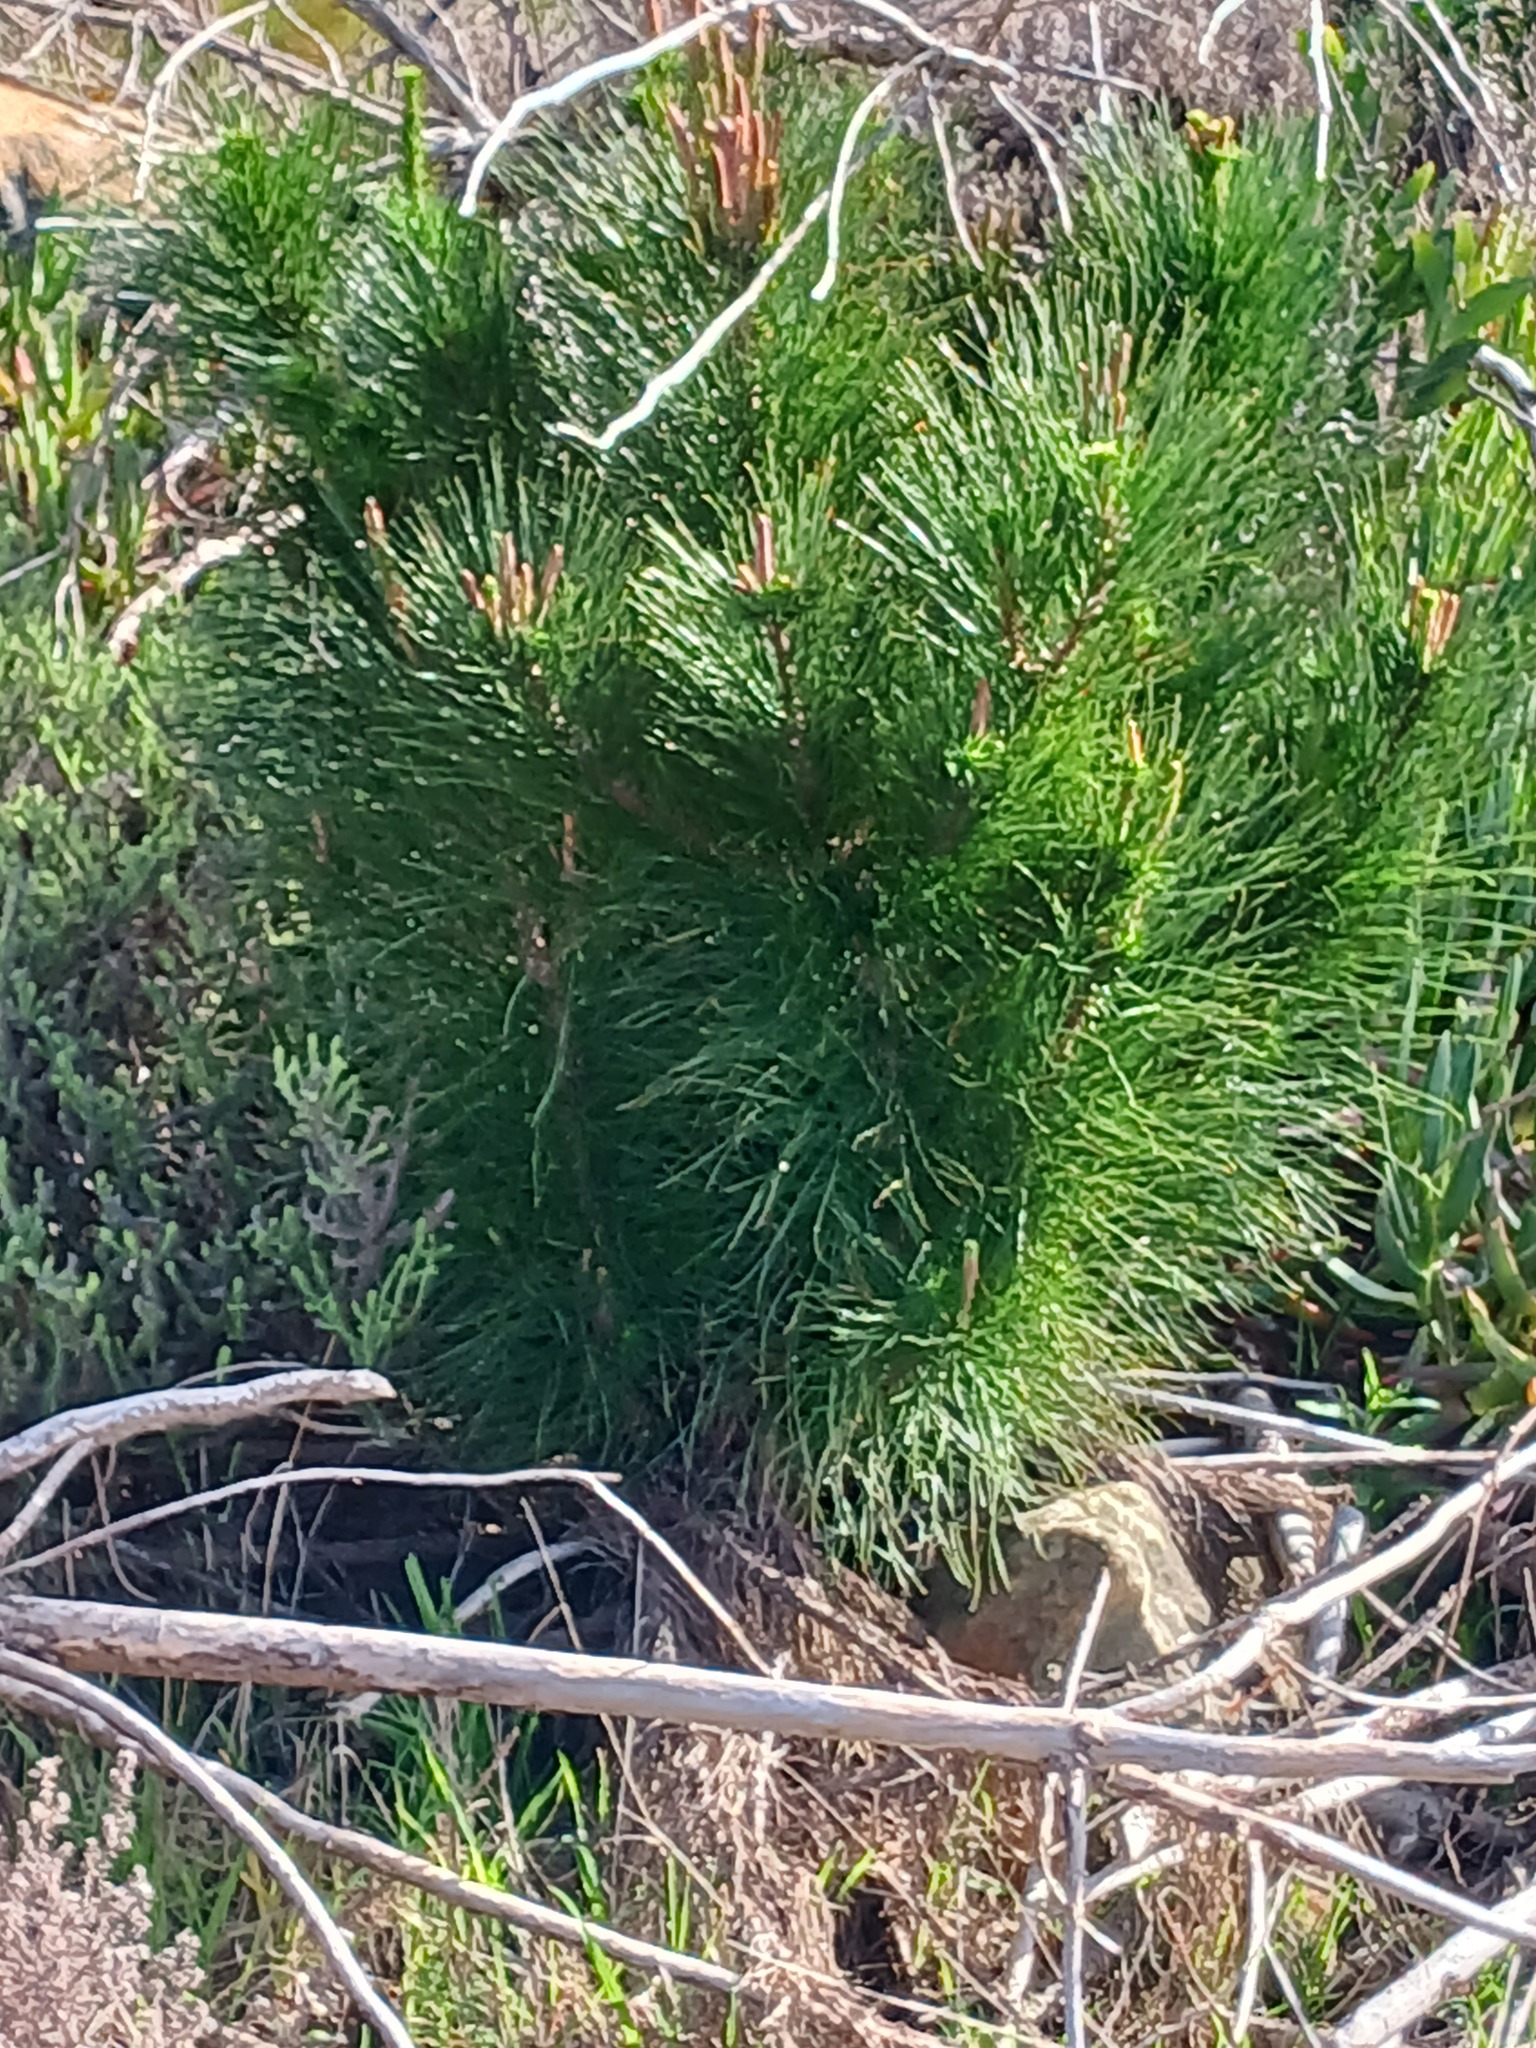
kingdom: Plantae
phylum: Tracheophyta
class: Pinopsida
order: Pinales
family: Pinaceae
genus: Pinus
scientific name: Pinus radiata
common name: Monterey pine
